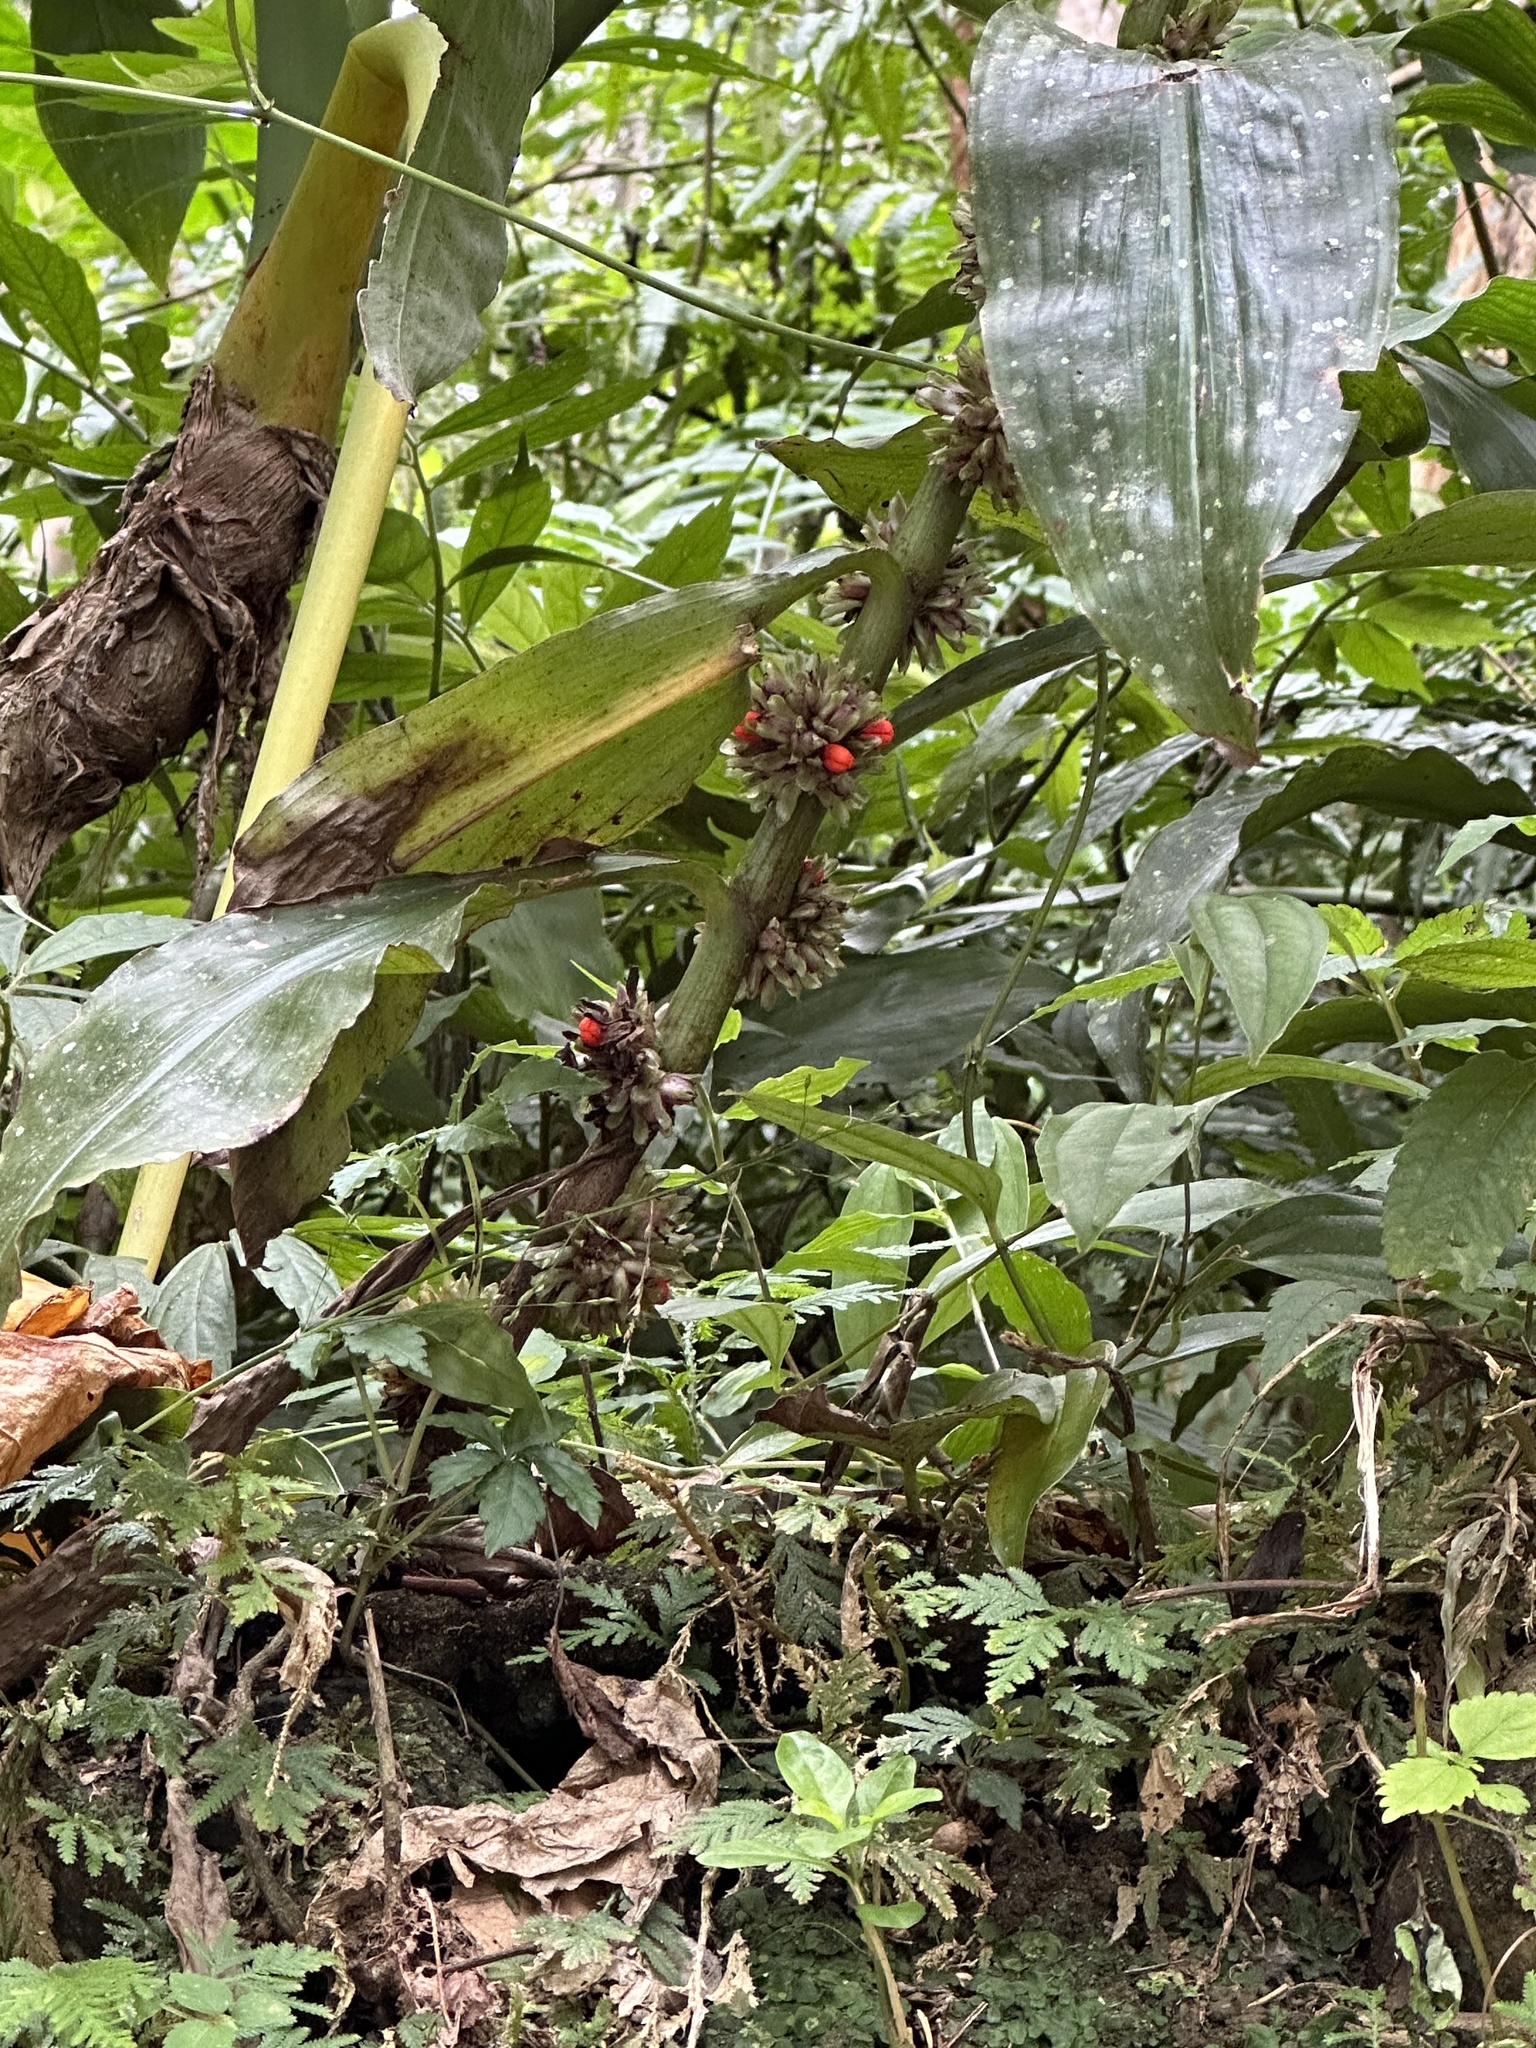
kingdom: Plantae
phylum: Tracheophyta
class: Liliopsida
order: Commelinales
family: Commelinaceae
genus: Amischotolype
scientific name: Amischotolype glabrata
